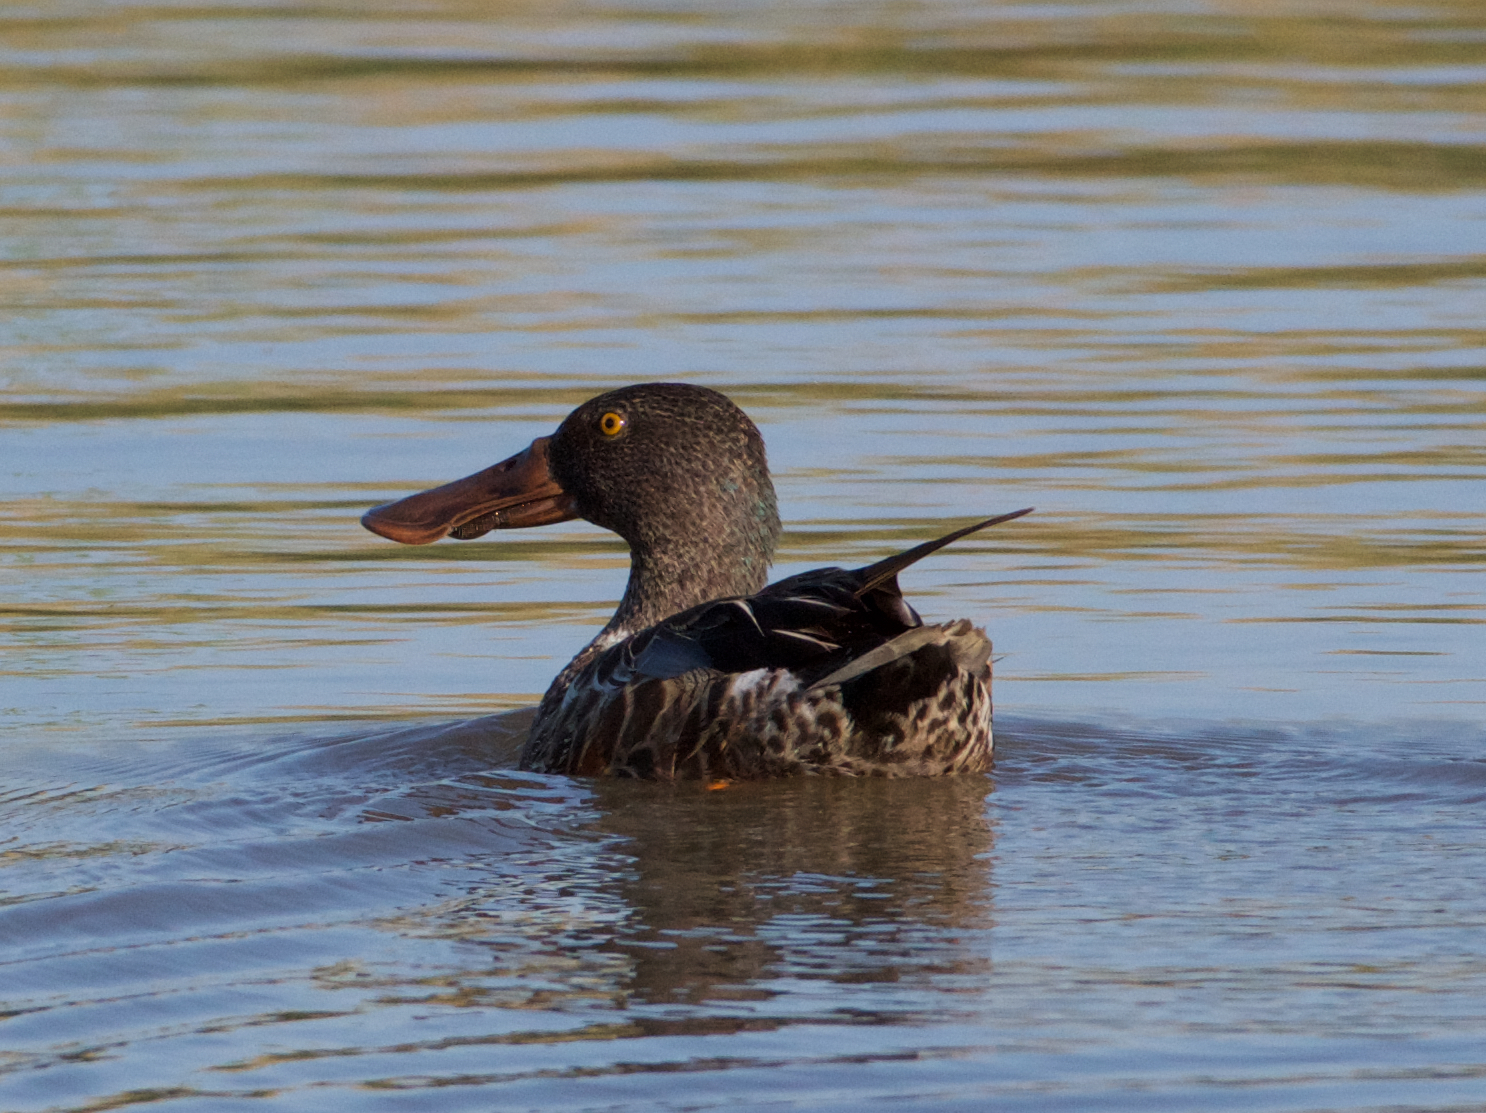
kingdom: Animalia
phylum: Chordata
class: Aves
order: Anseriformes
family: Anatidae
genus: Spatula
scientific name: Spatula clypeata
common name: Northern shoveler
